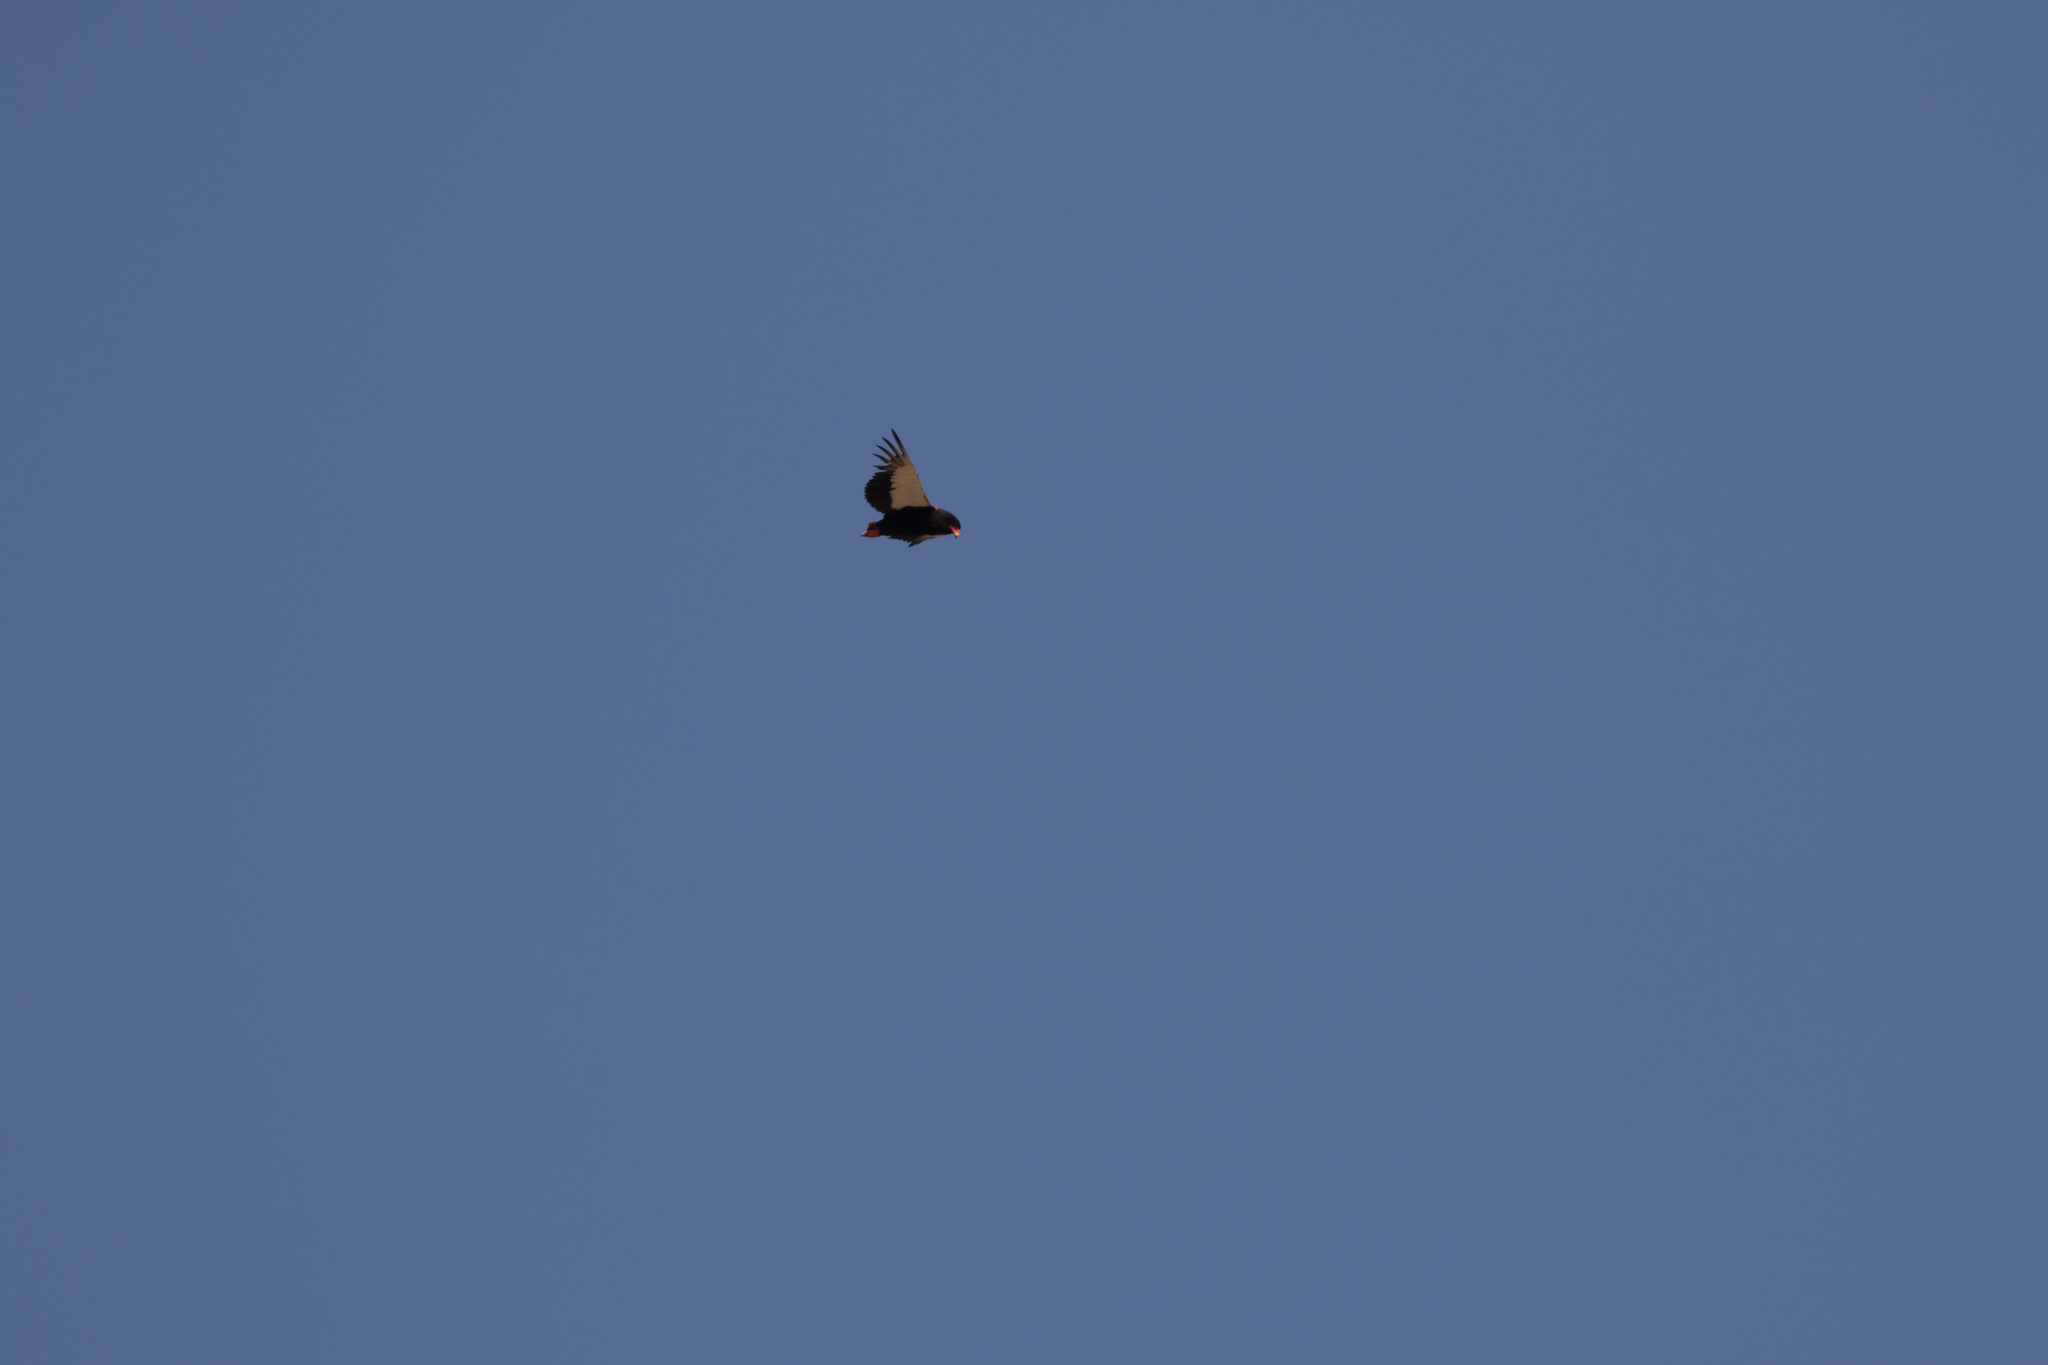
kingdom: Animalia
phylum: Chordata
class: Aves
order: Accipitriformes
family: Accipitridae
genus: Terathopius
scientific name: Terathopius ecaudatus
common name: Bateleur
